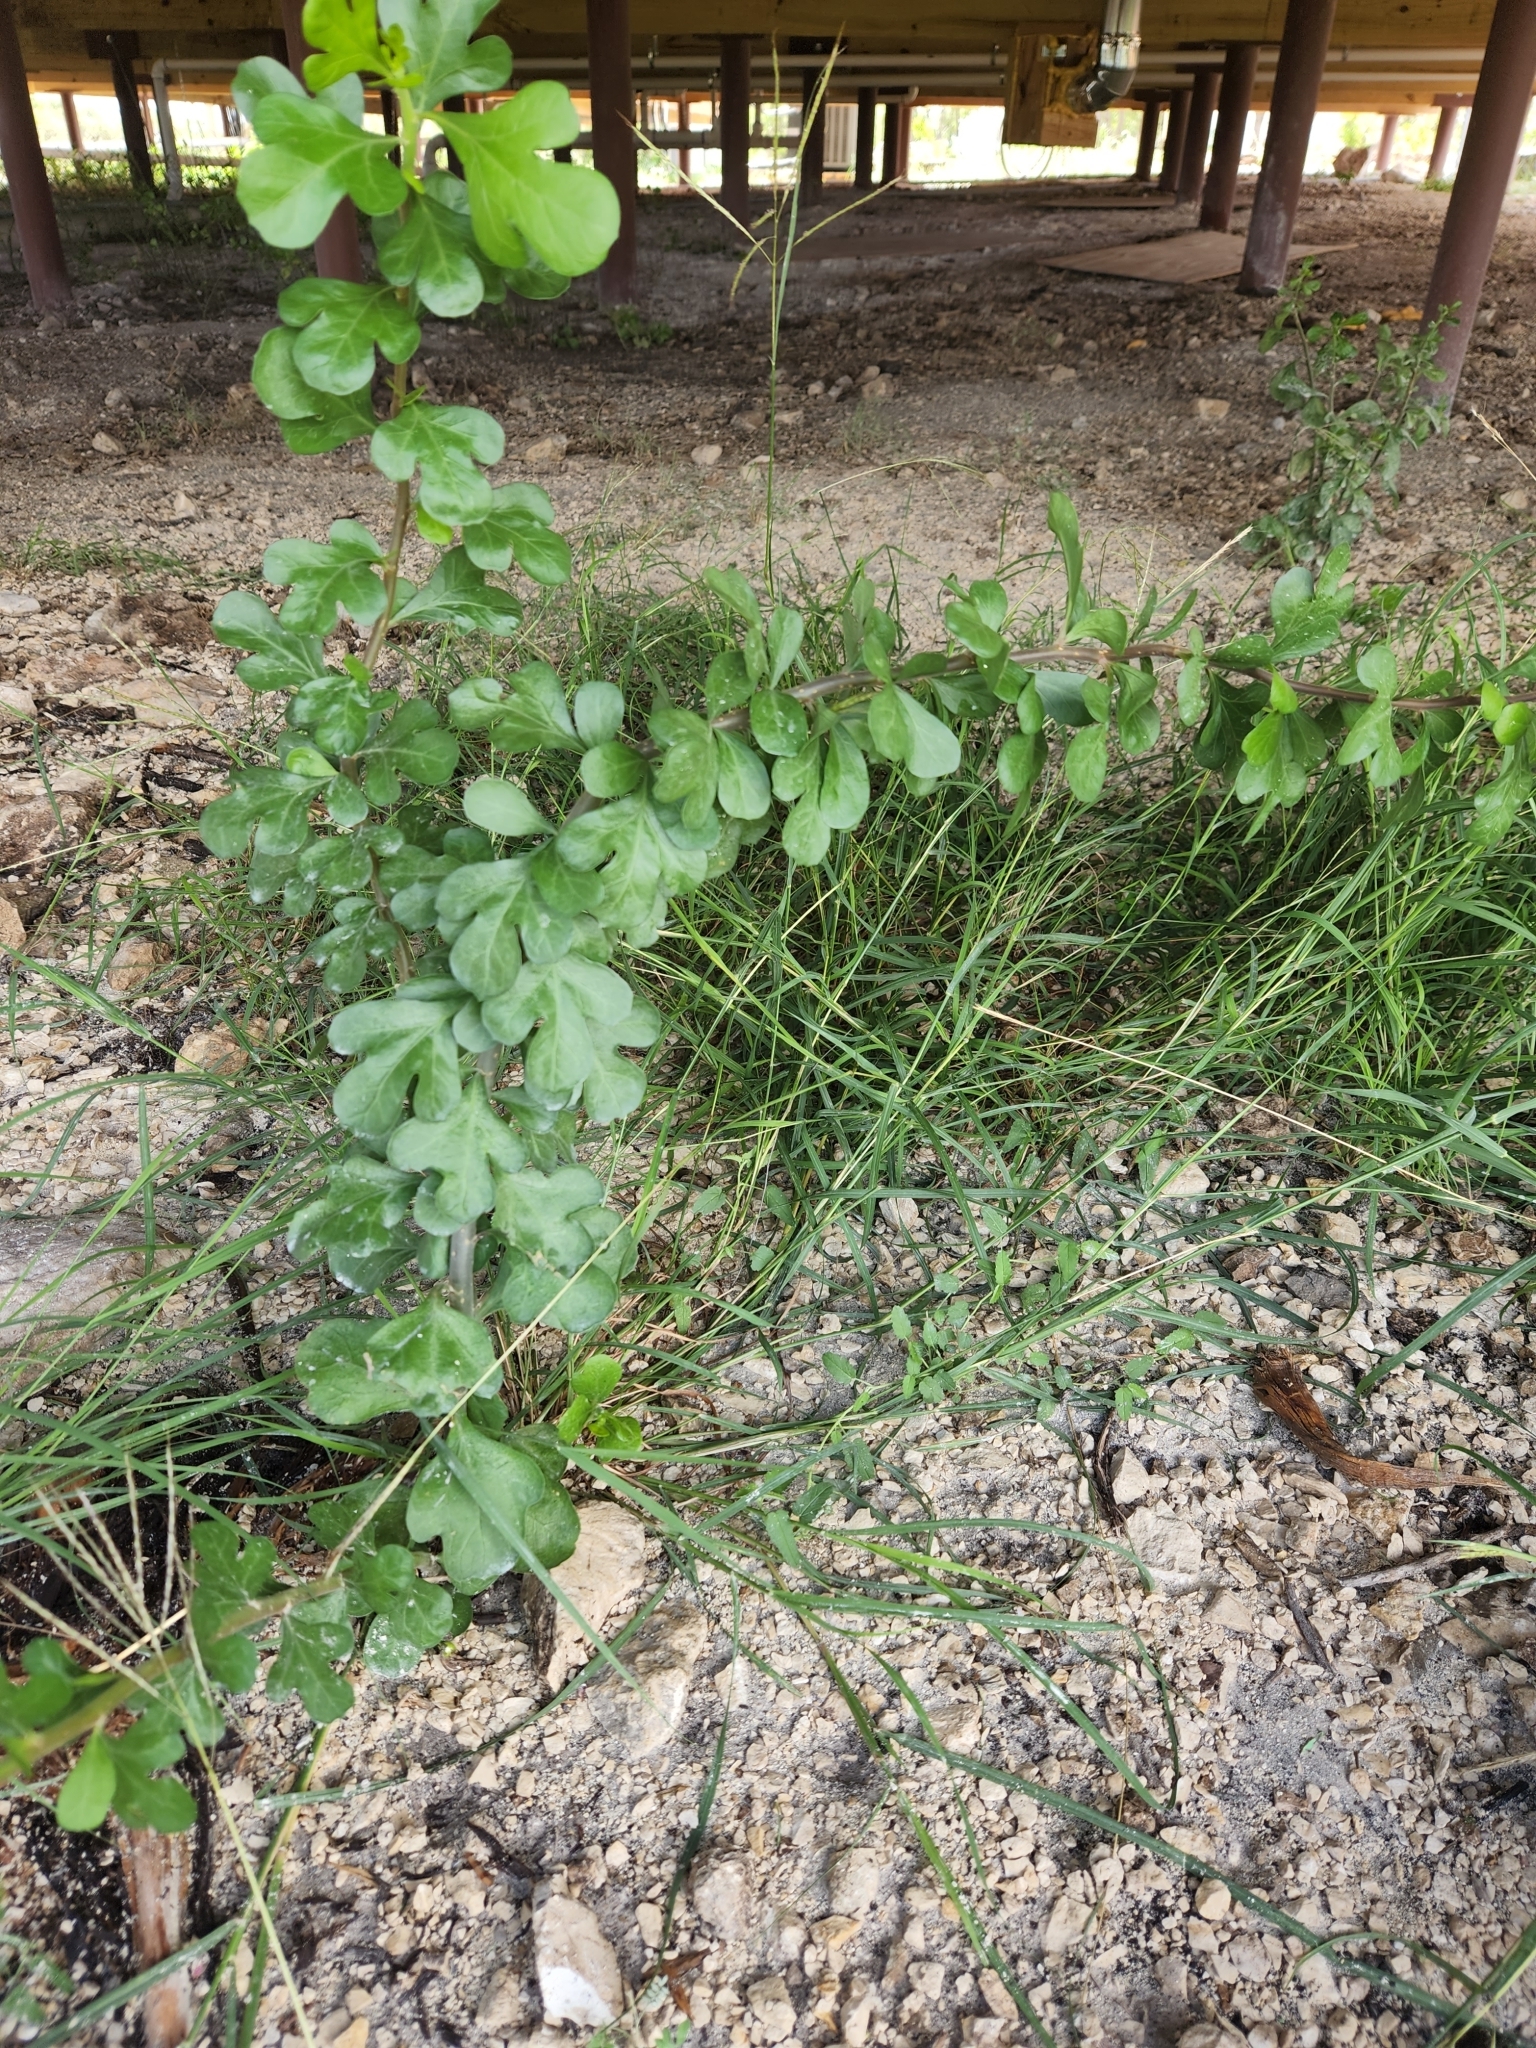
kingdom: Plantae
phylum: Tracheophyta
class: Magnoliopsida
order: Malpighiales
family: Euphorbiaceae
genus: Jatropha
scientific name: Jatropha dioica
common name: Leatherstem
